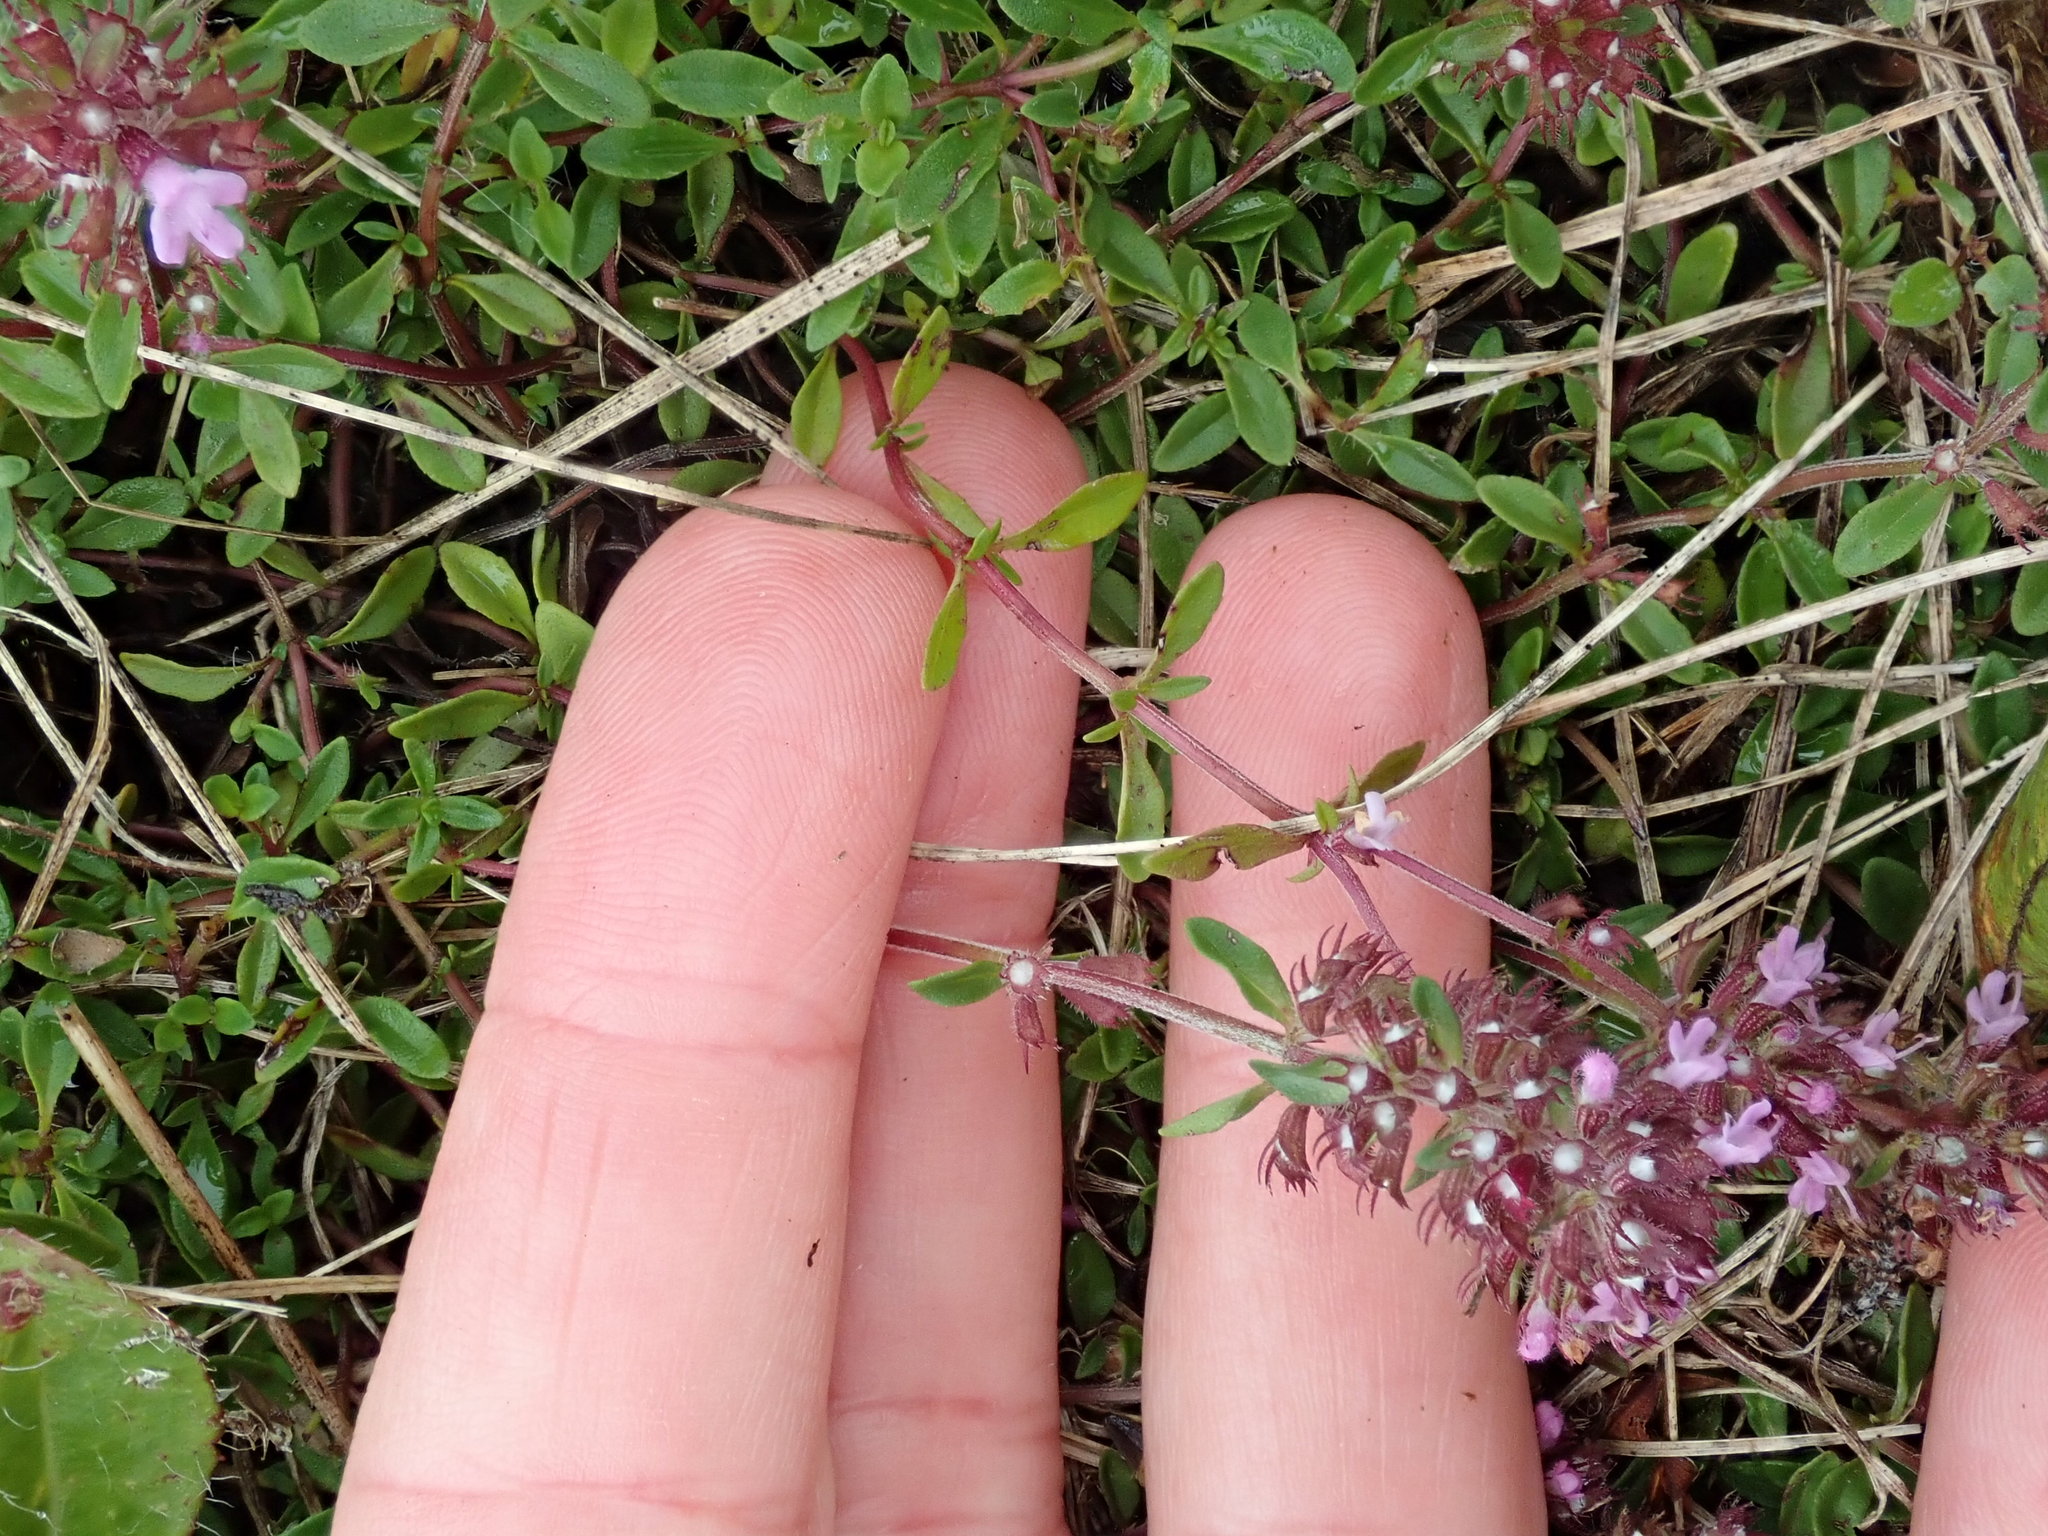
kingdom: Plantae
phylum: Tracheophyta
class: Magnoliopsida
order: Lamiales
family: Lamiaceae
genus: Thymus
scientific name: Thymus pulegioides
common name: Large thyme
